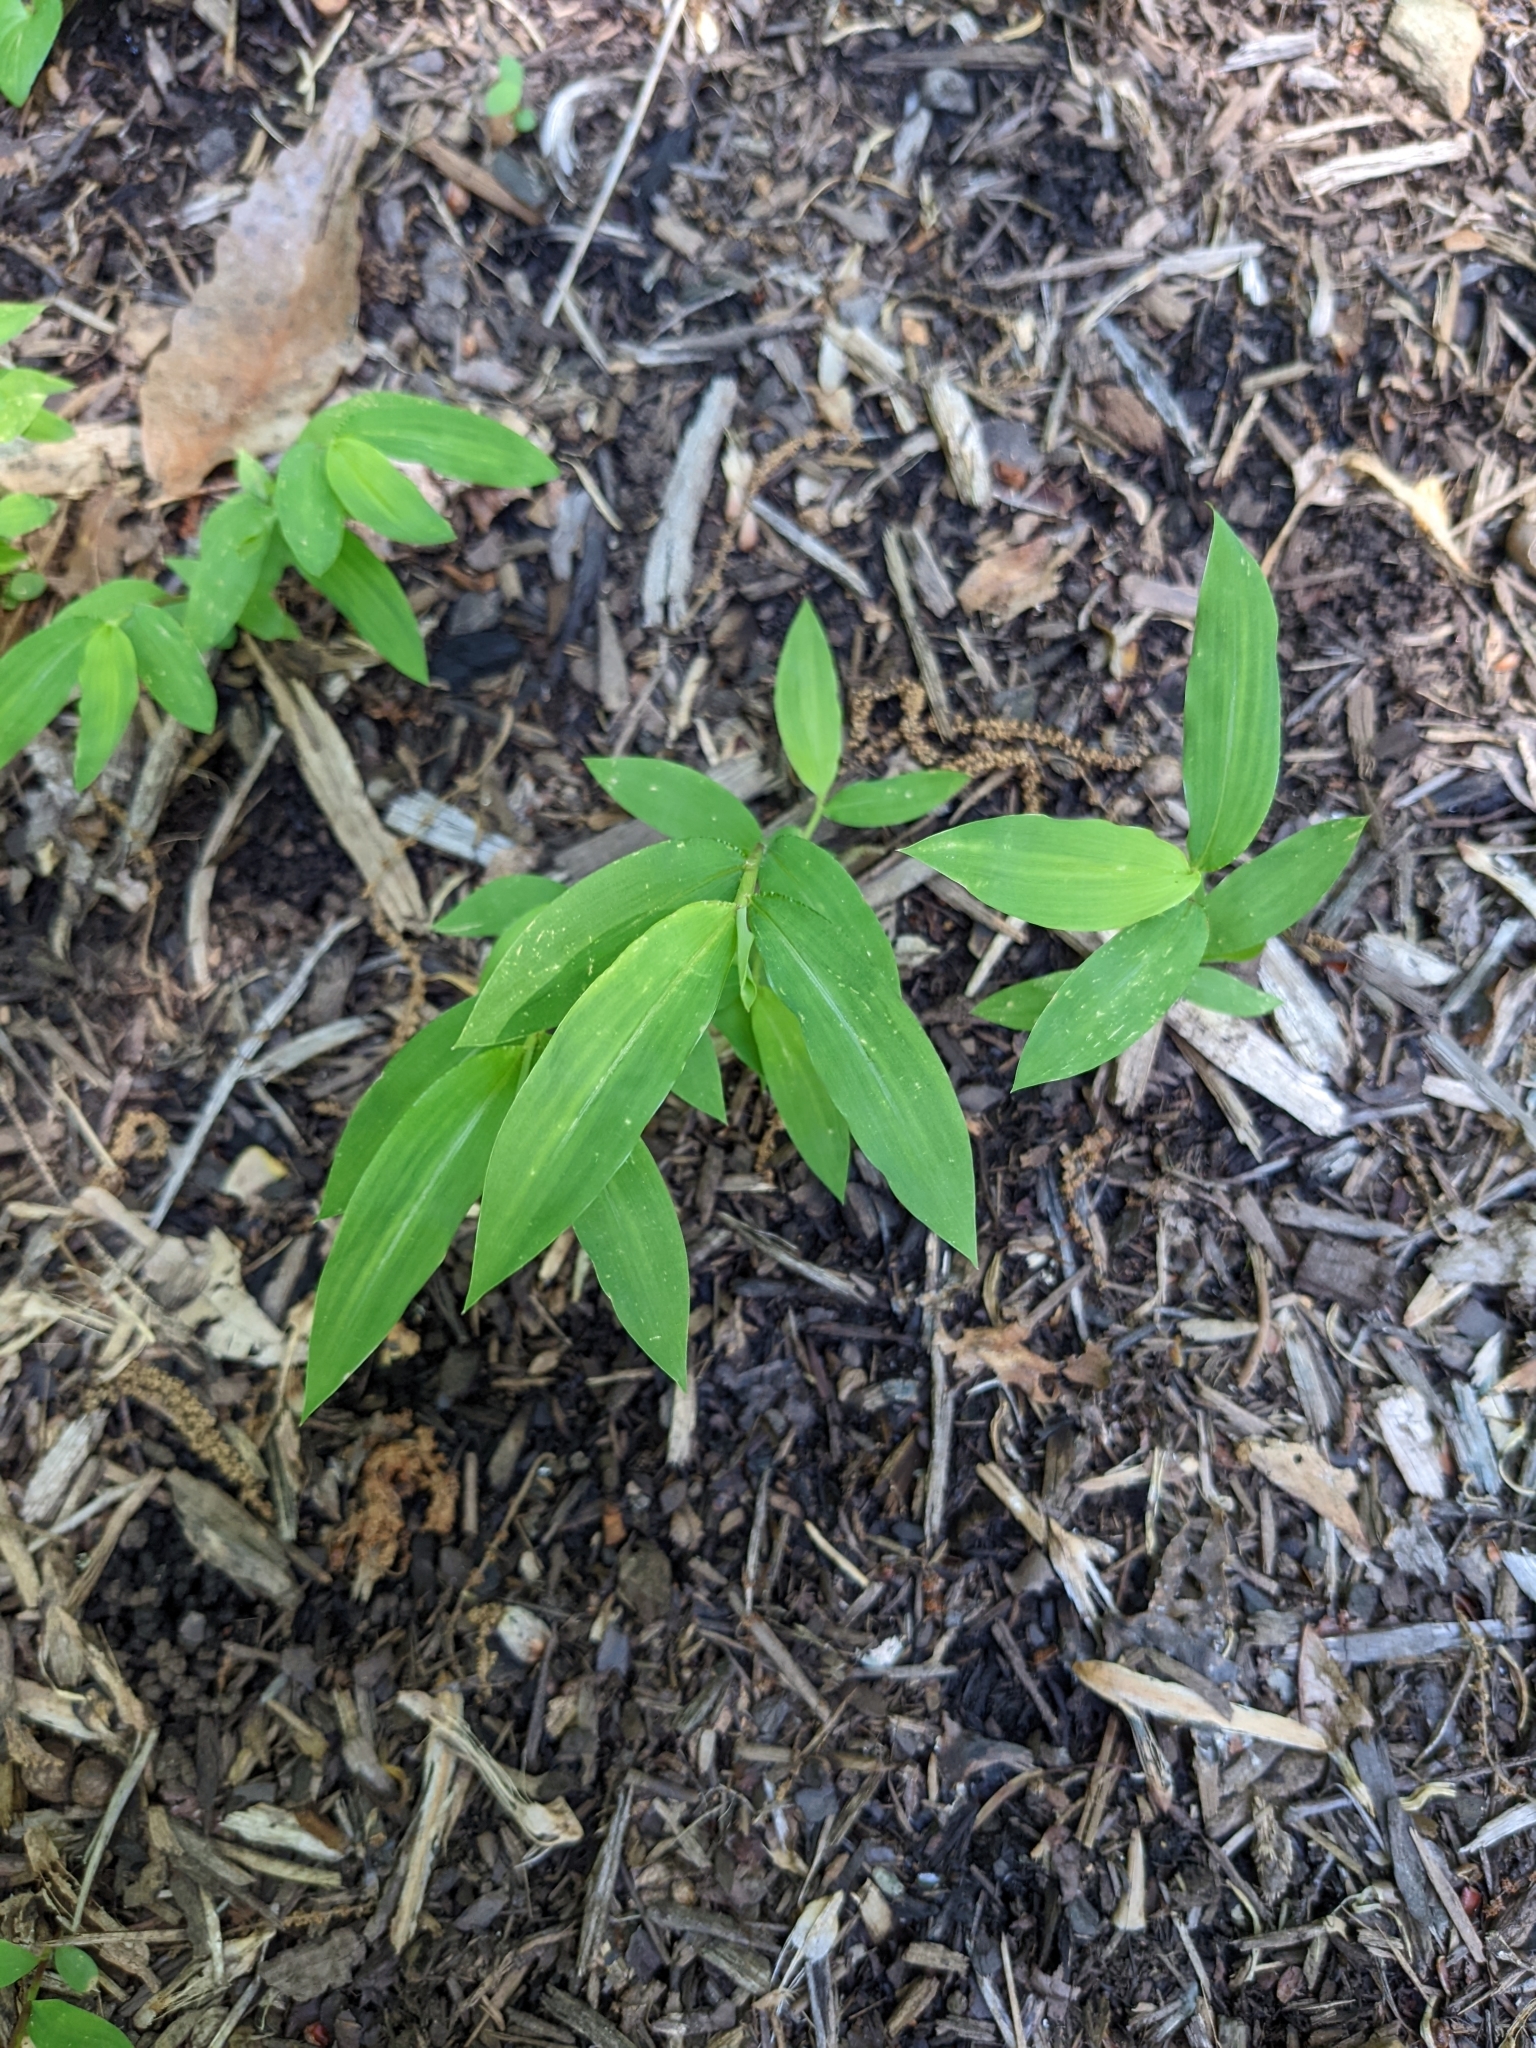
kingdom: Plantae
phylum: Tracheophyta
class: Liliopsida
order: Poales
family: Poaceae
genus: Microstegium
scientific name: Microstegium vimineum
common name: Japanese stiltgrass
